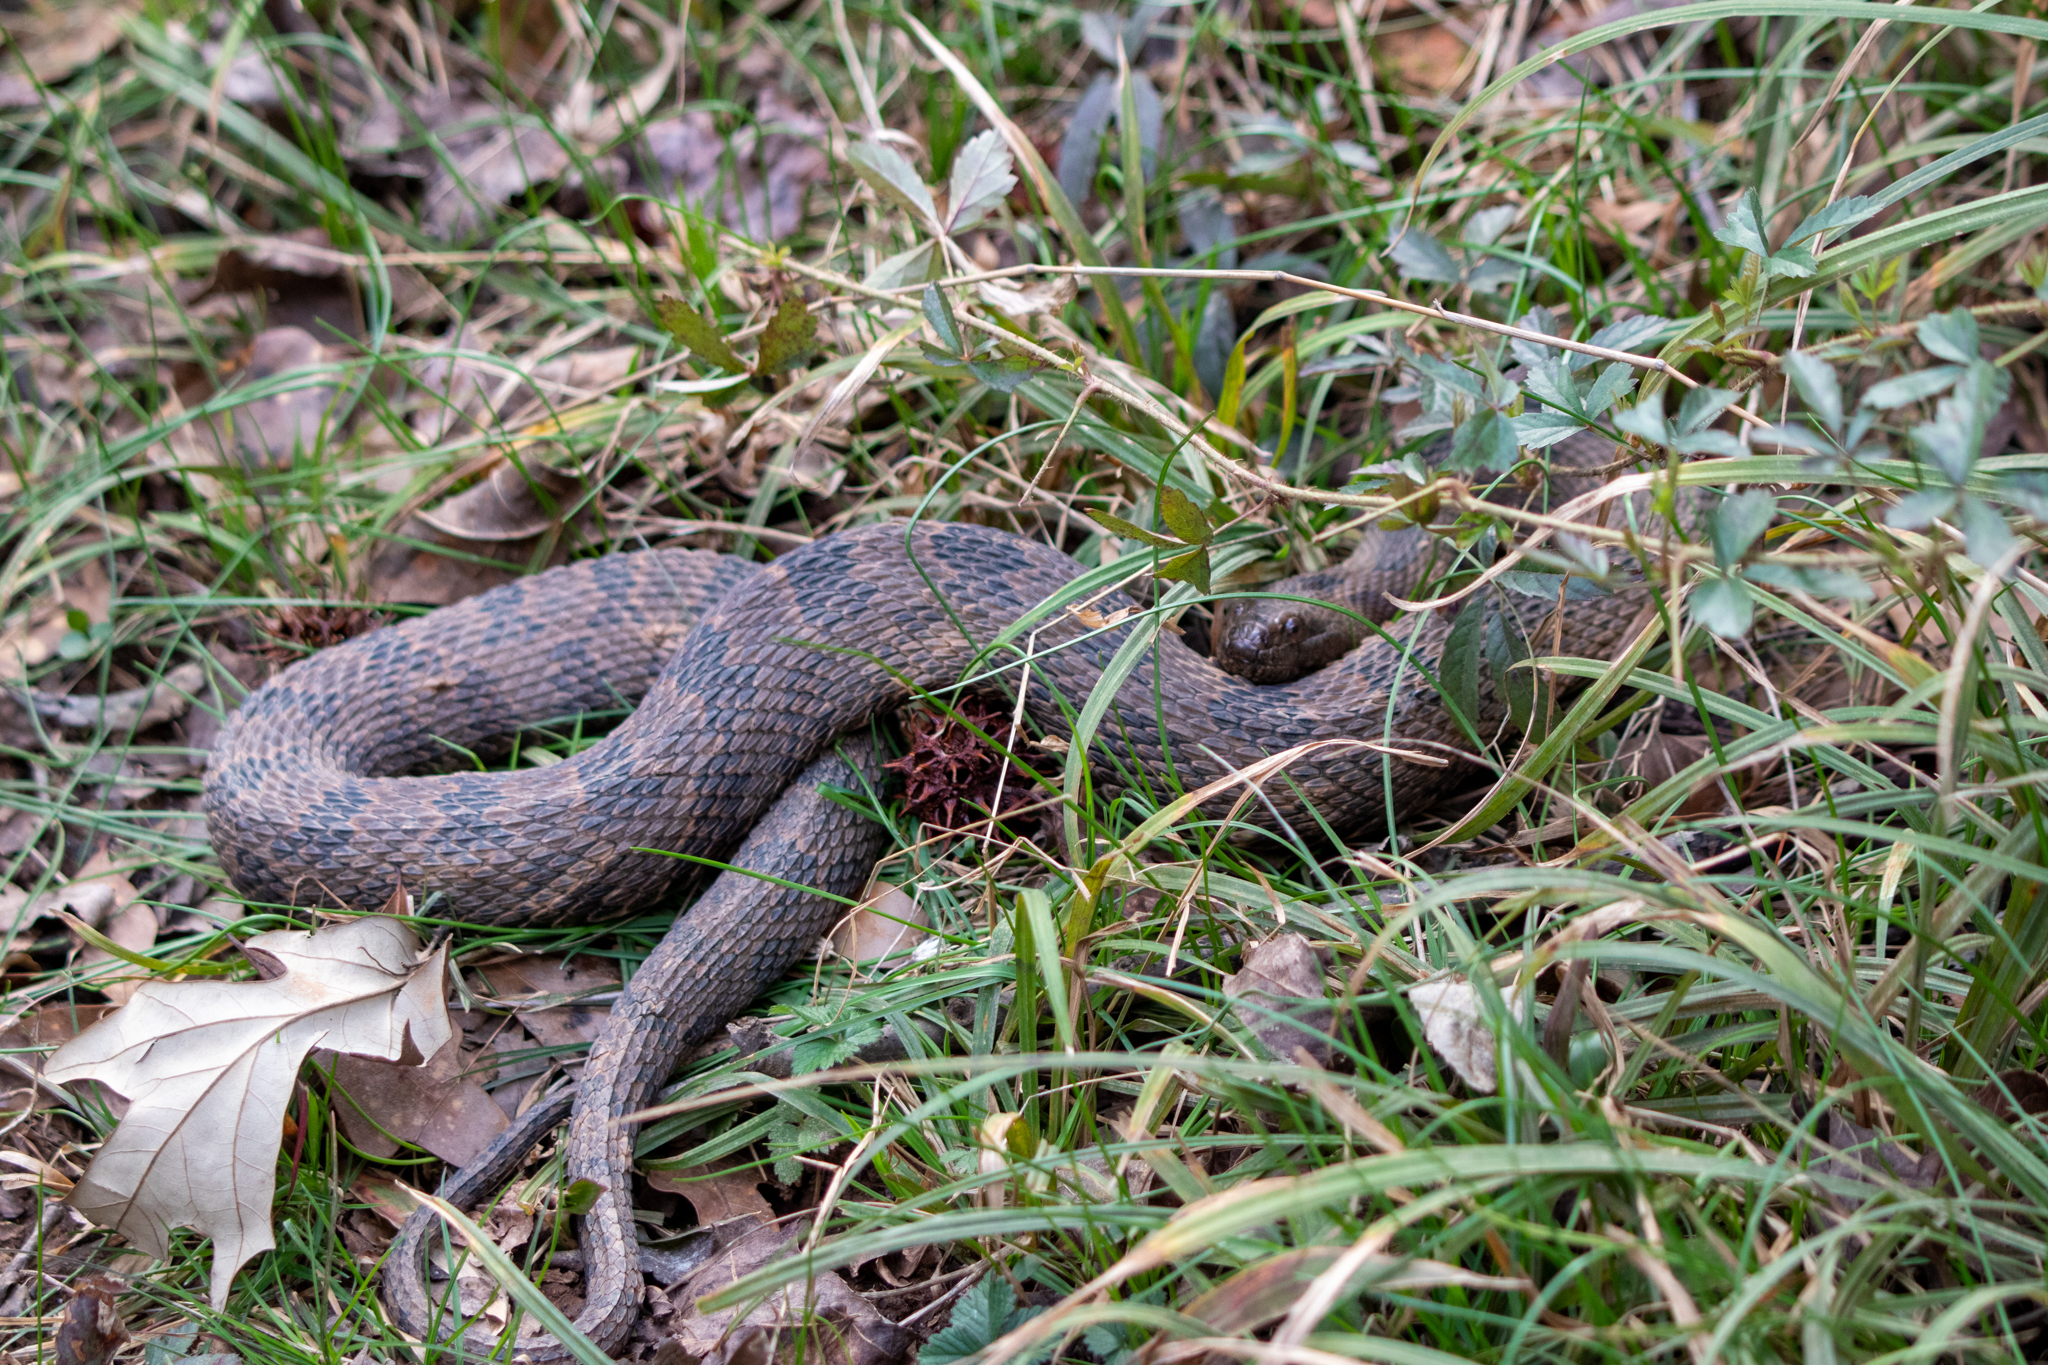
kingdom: Animalia
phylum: Chordata
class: Squamata
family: Colubridae
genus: Nerodia
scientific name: Nerodia taxispilota
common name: Brown water snake
